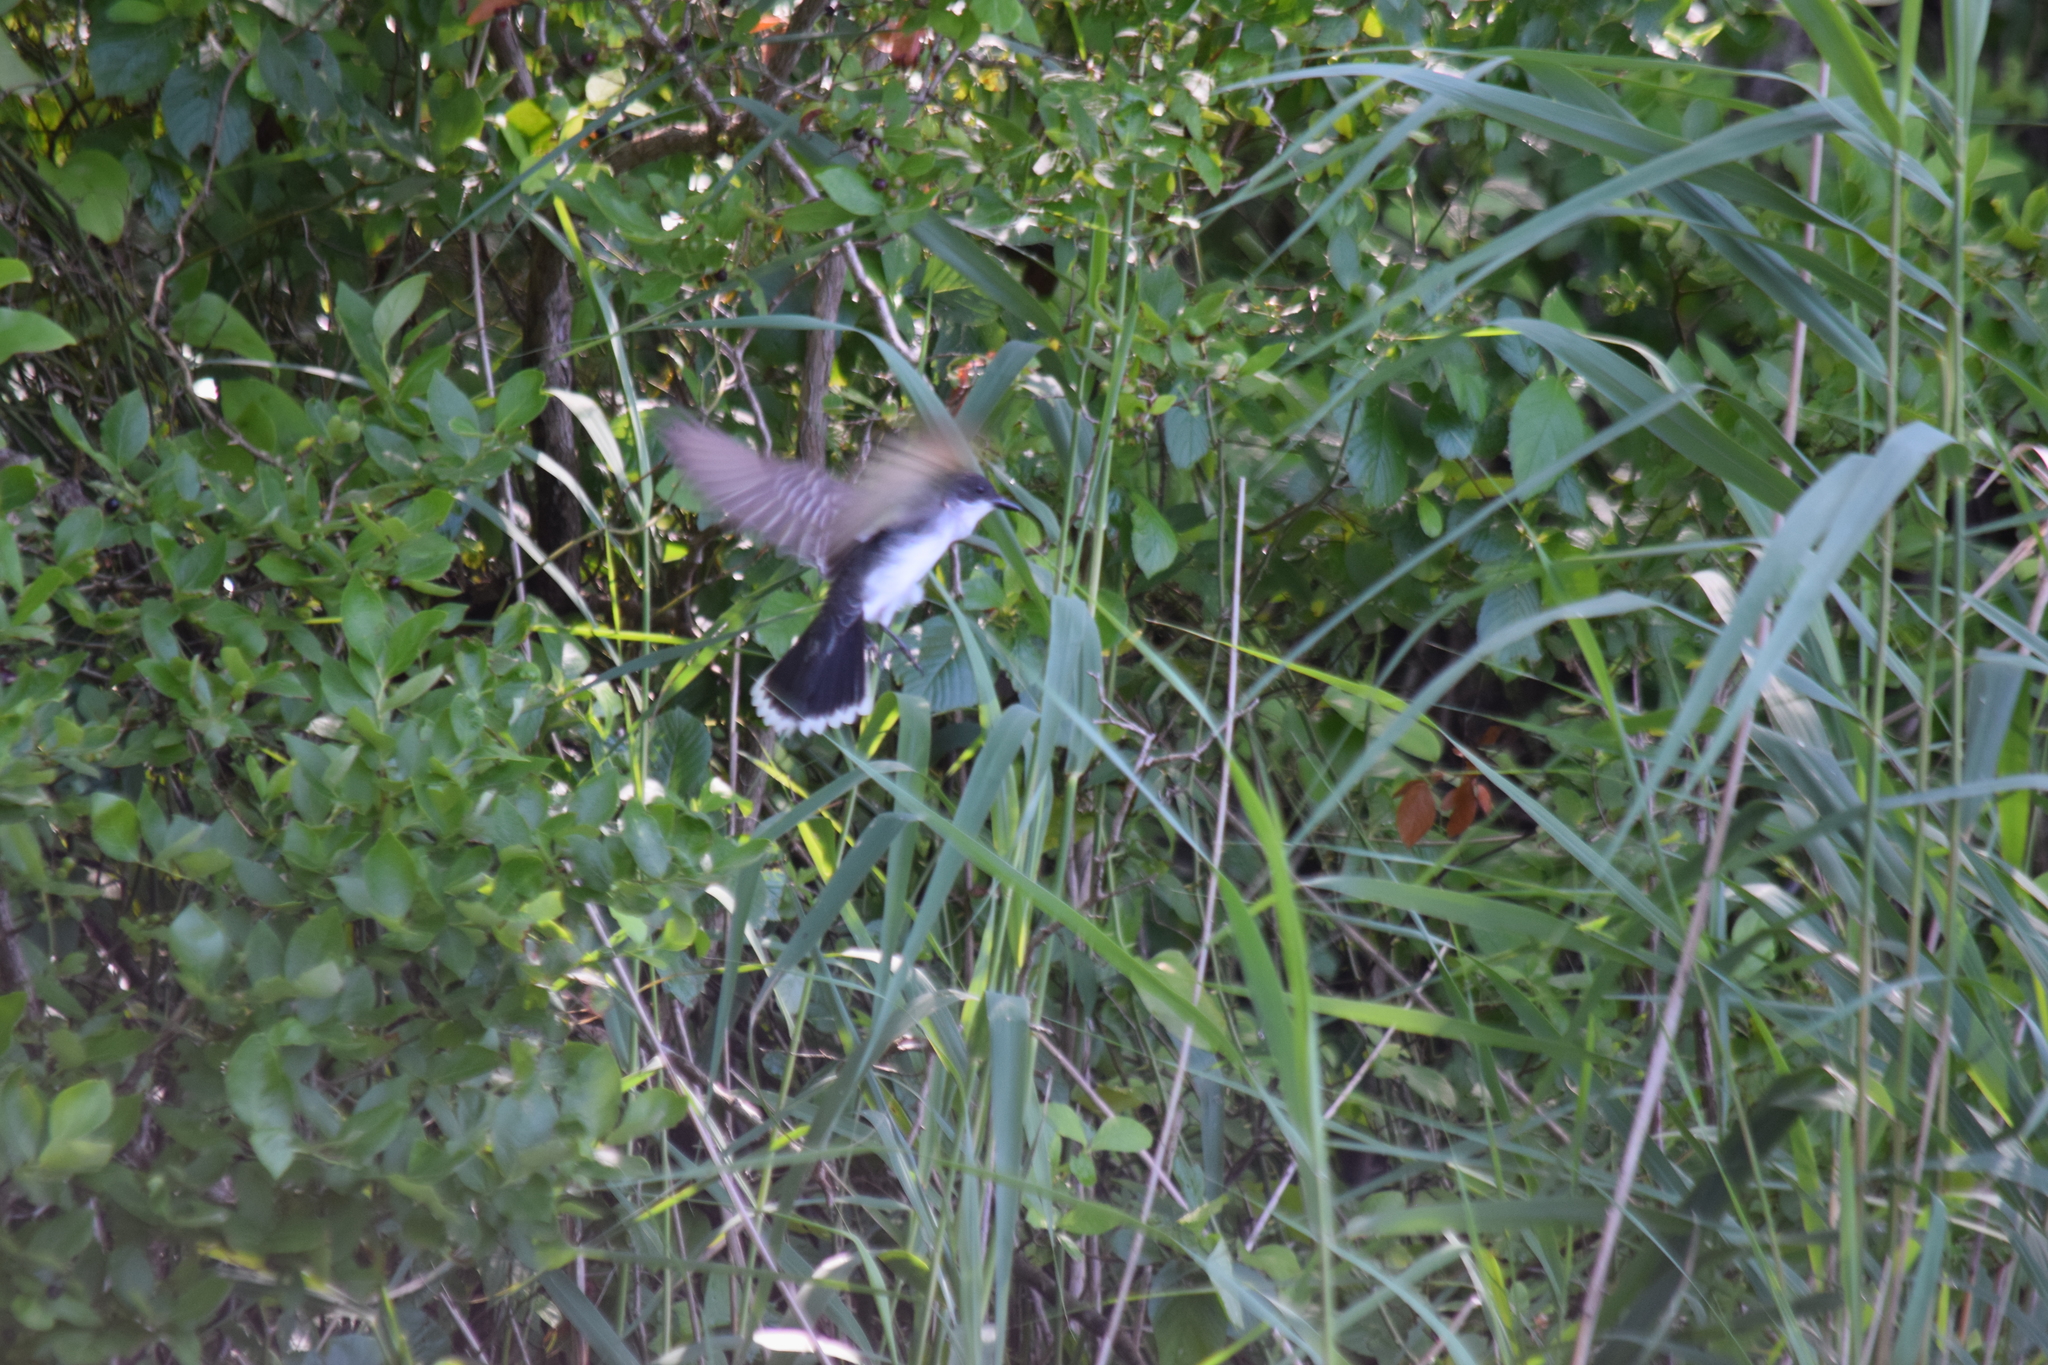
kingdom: Animalia
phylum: Chordata
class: Aves
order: Passeriformes
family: Tyrannidae
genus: Tyrannus
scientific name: Tyrannus tyrannus
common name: Eastern kingbird
